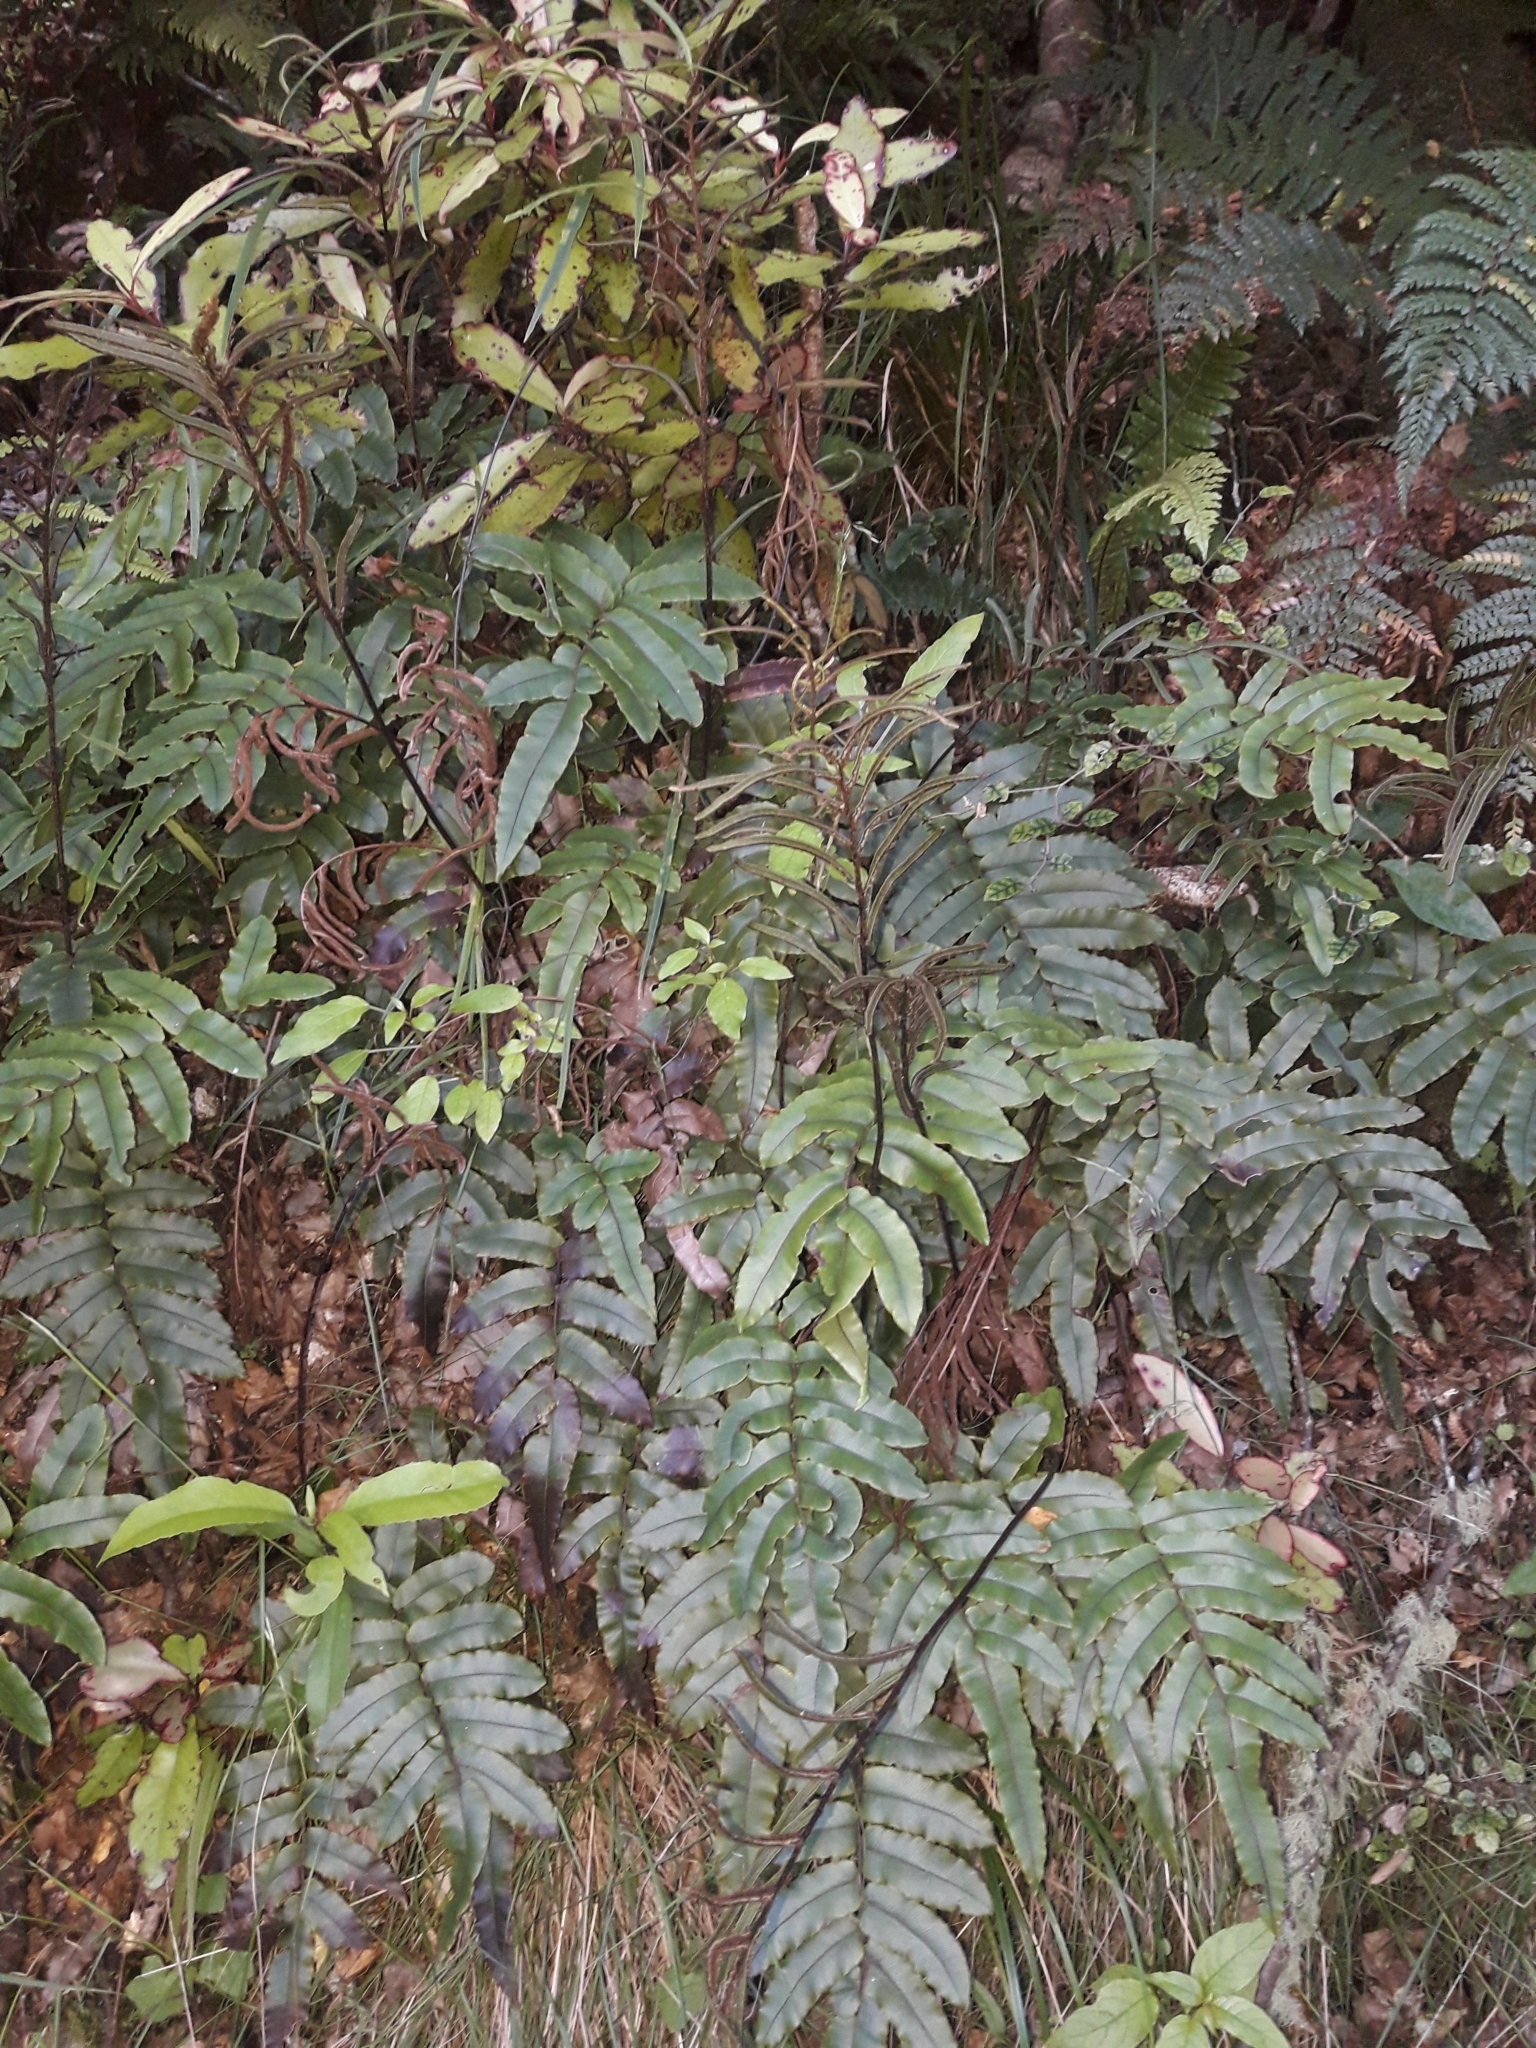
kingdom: Plantae
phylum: Tracheophyta
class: Polypodiopsida
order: Polypodiales
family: Blechnaceae
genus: Parablechnum
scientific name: Parablechnum procerum
